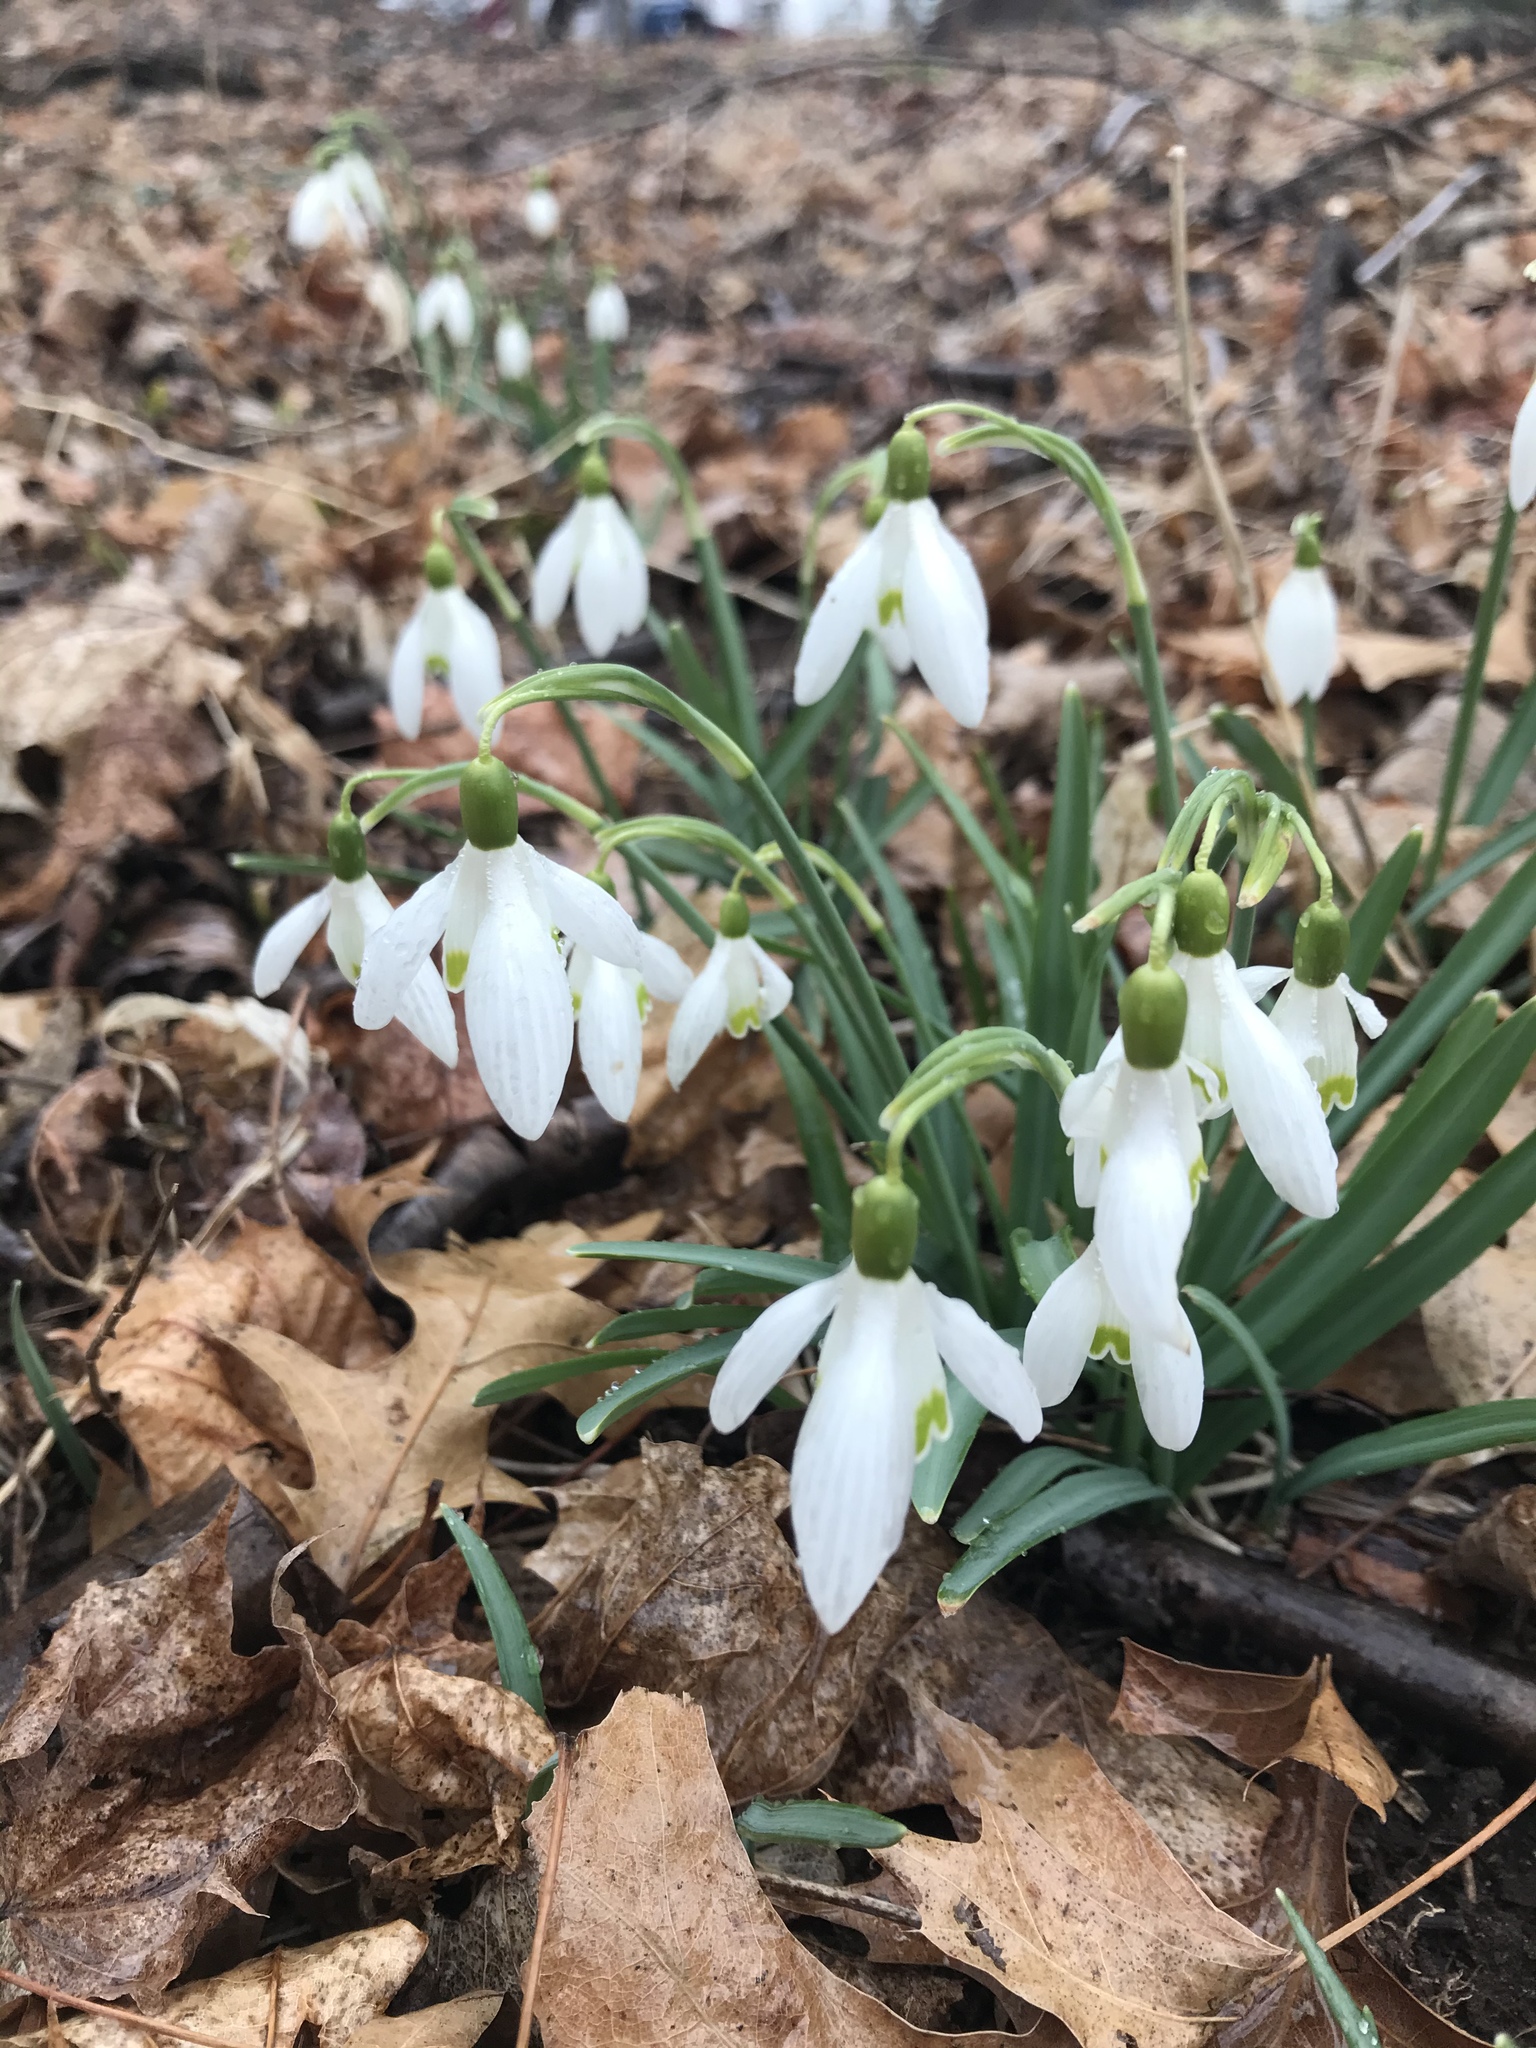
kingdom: Plantae
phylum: Tracheophyta
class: Liliopsida
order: Asparagales
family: Amaryllidaceae
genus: Galanthus
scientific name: Galanthus nivalis
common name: Snowdrop
